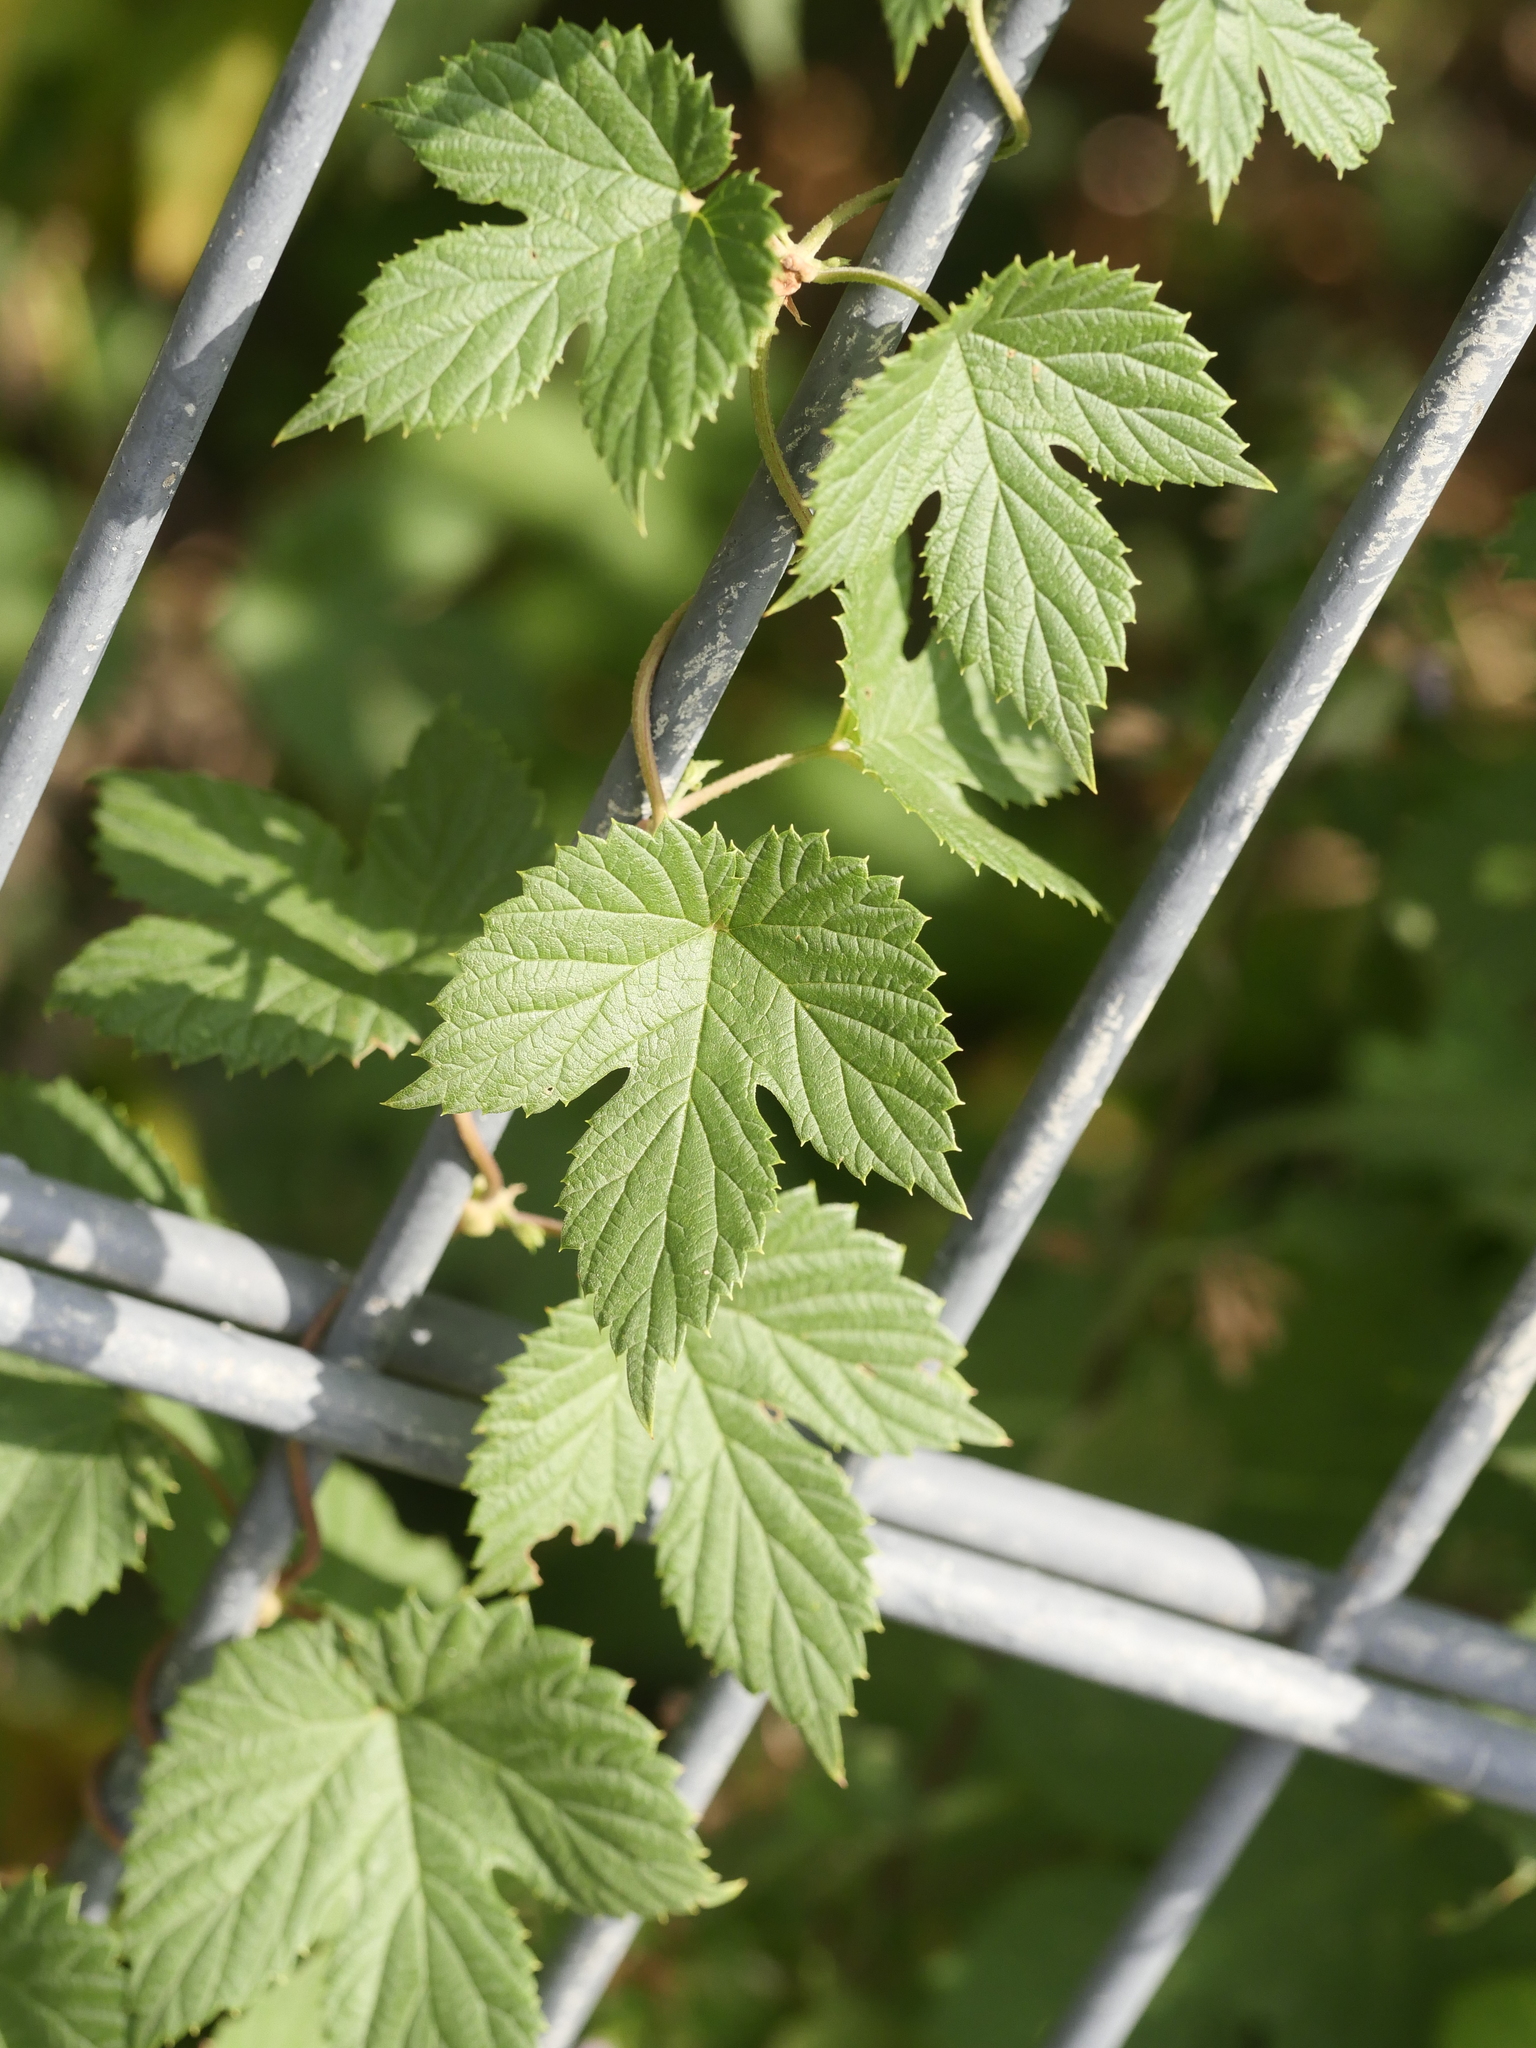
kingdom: Plantae
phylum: Tracheophyta
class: Magnoliopsida
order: Rosales
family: Cannabaceae
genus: Humulus
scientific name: Humulus lupulus
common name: Hop
